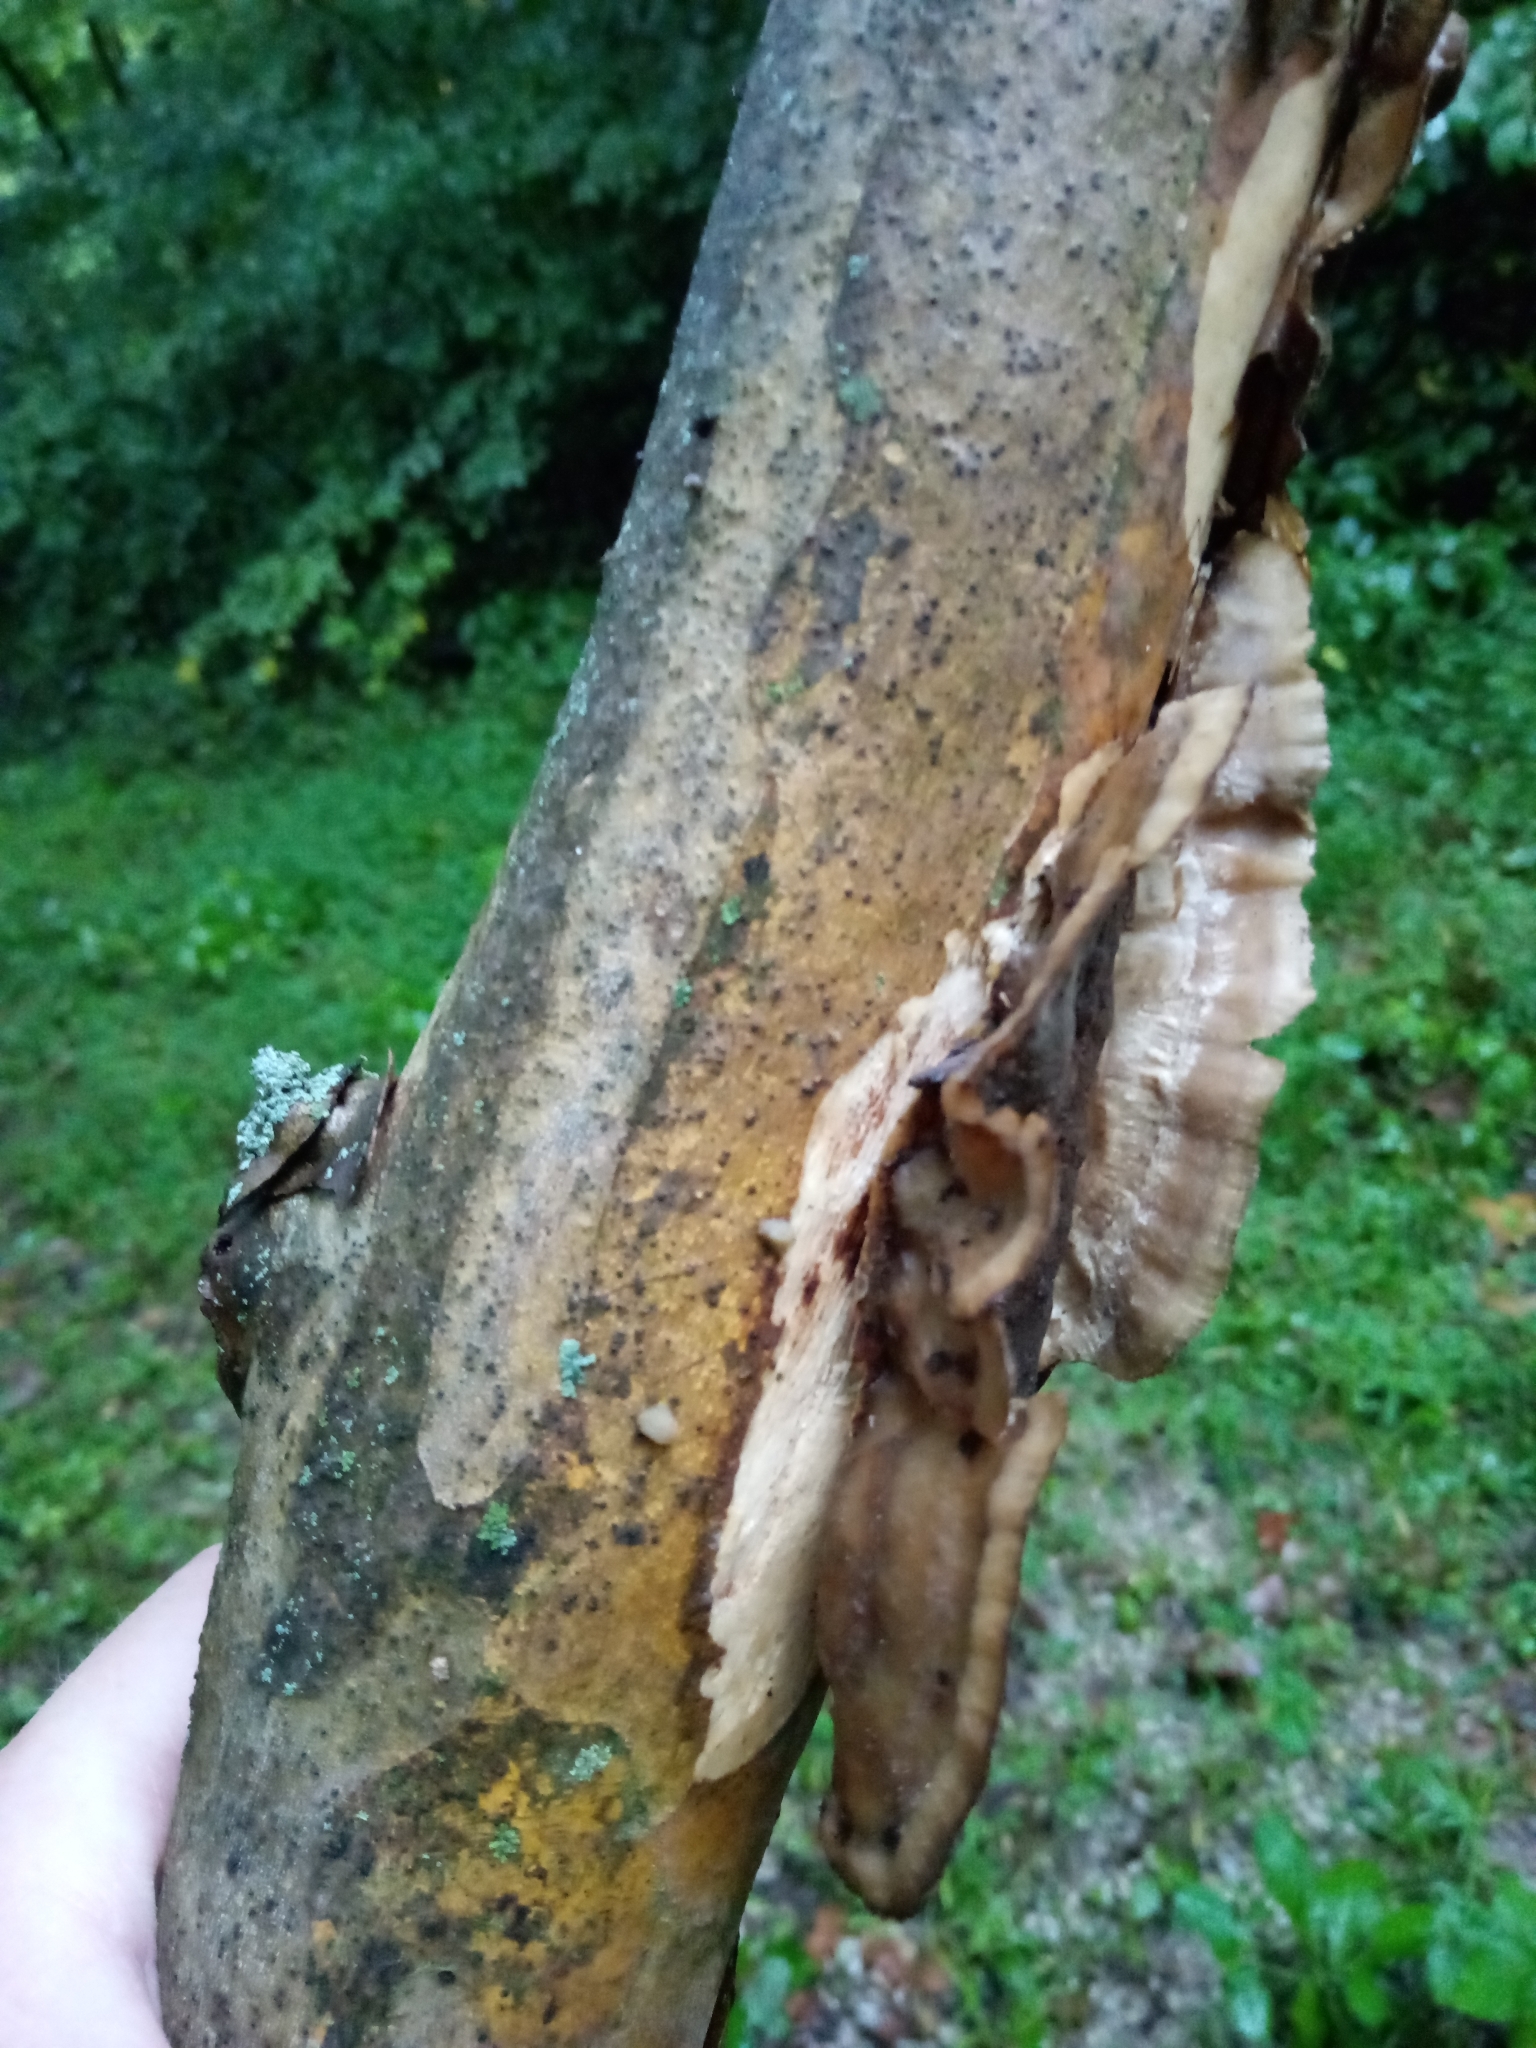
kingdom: Fungi
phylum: Basidiomycota
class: Agaricomycetes
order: Polyporales
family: Phanerochaetaceae
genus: Bjerkandera
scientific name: Bjerkandera adusta
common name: Smoky bracket
